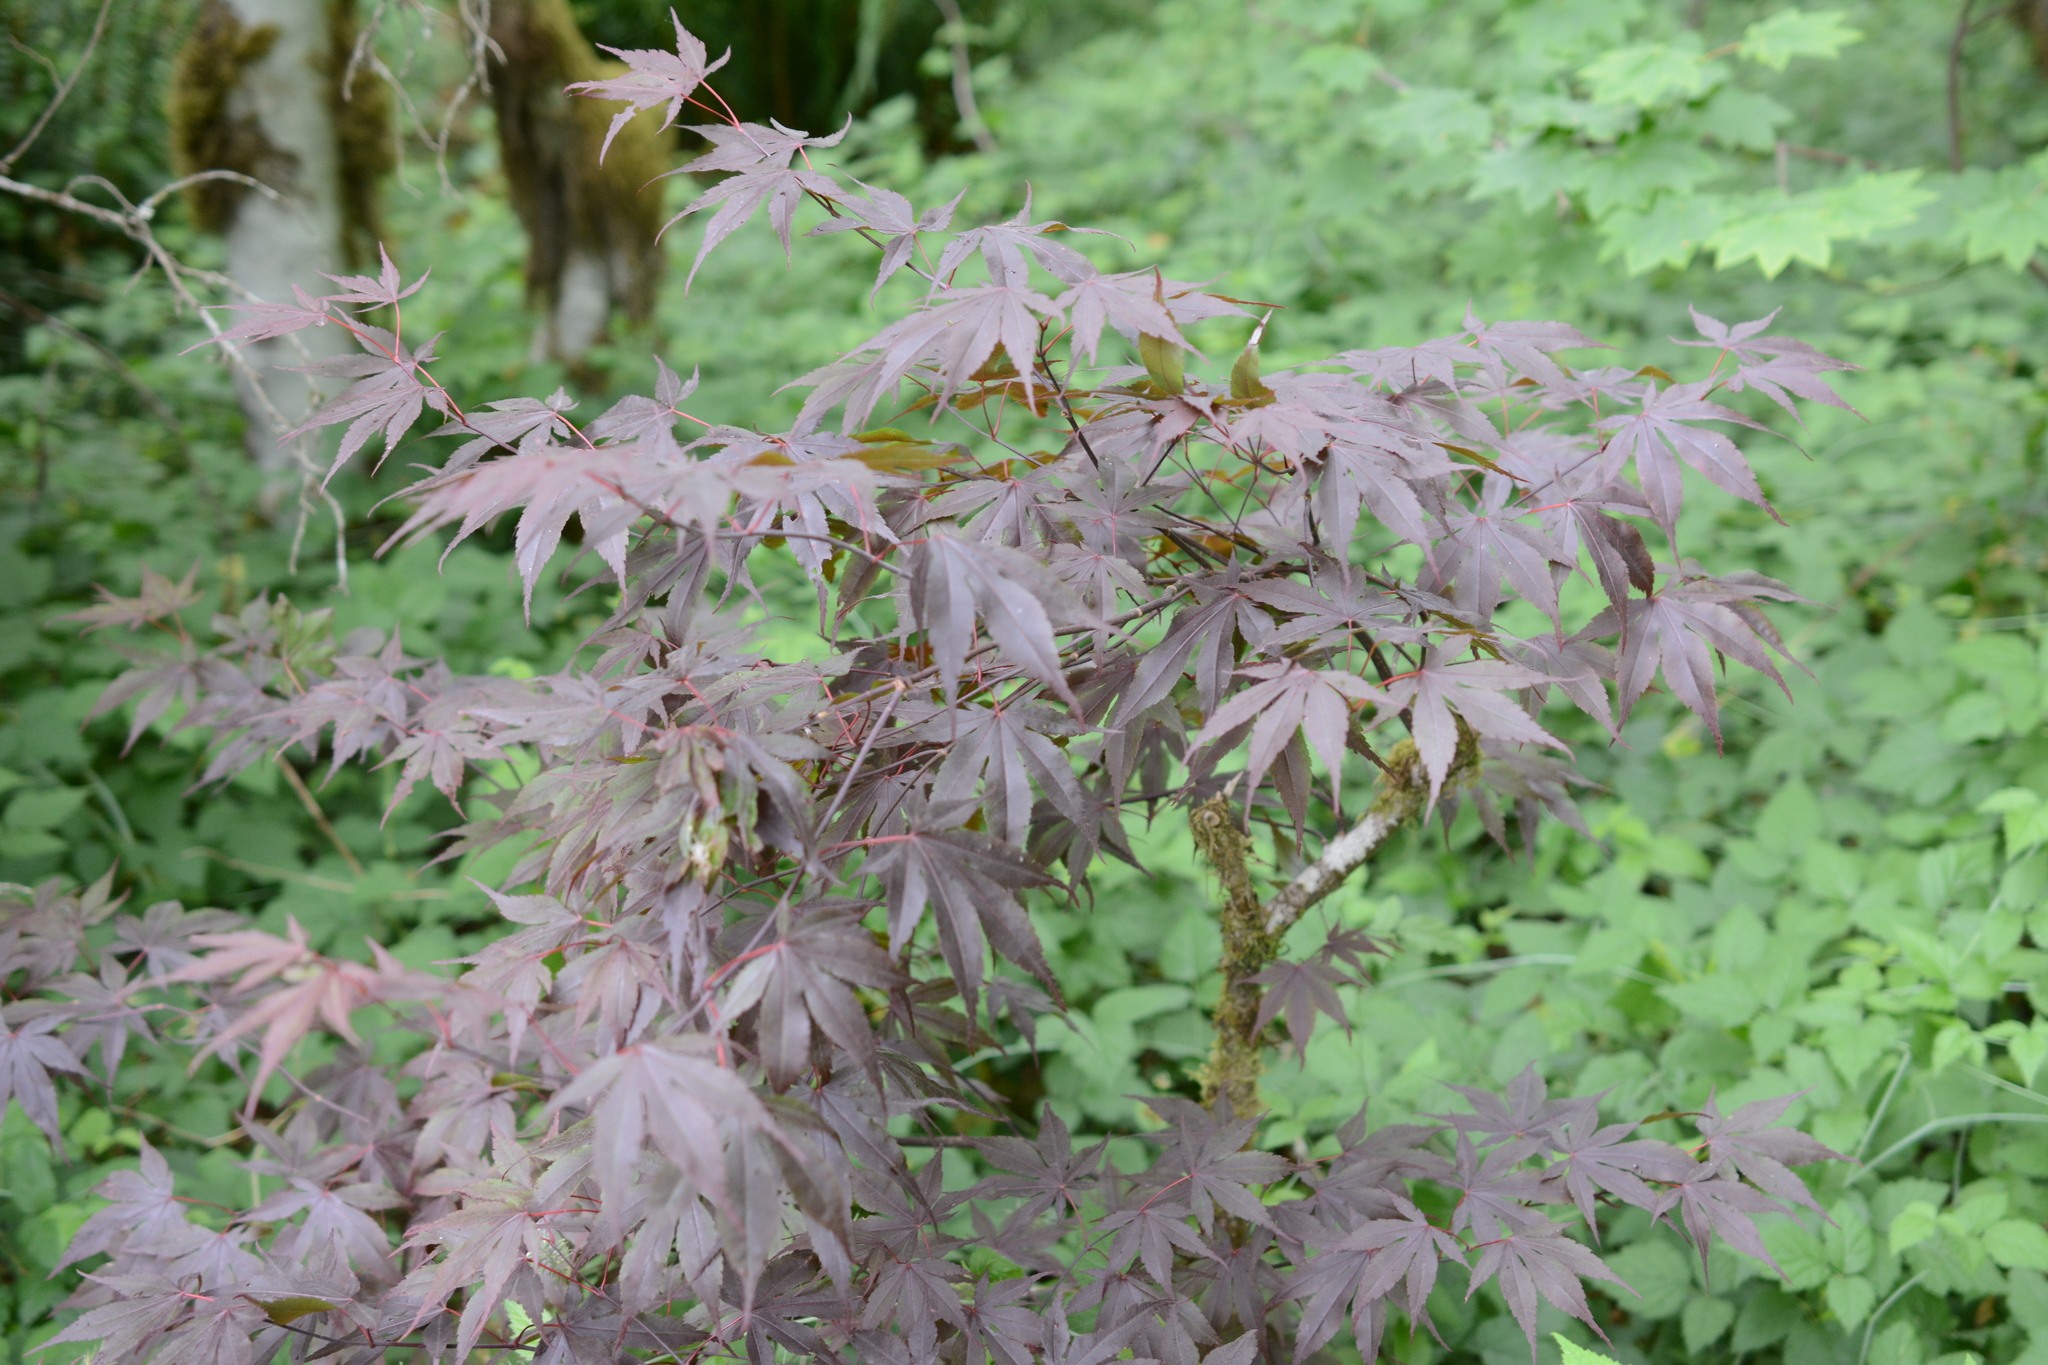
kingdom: Plantae
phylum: Tracheophyta
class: Magnoliopsida
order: Sapindales
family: Sapindaceae
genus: Acer
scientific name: Acer palmatum
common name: Japanese maple
